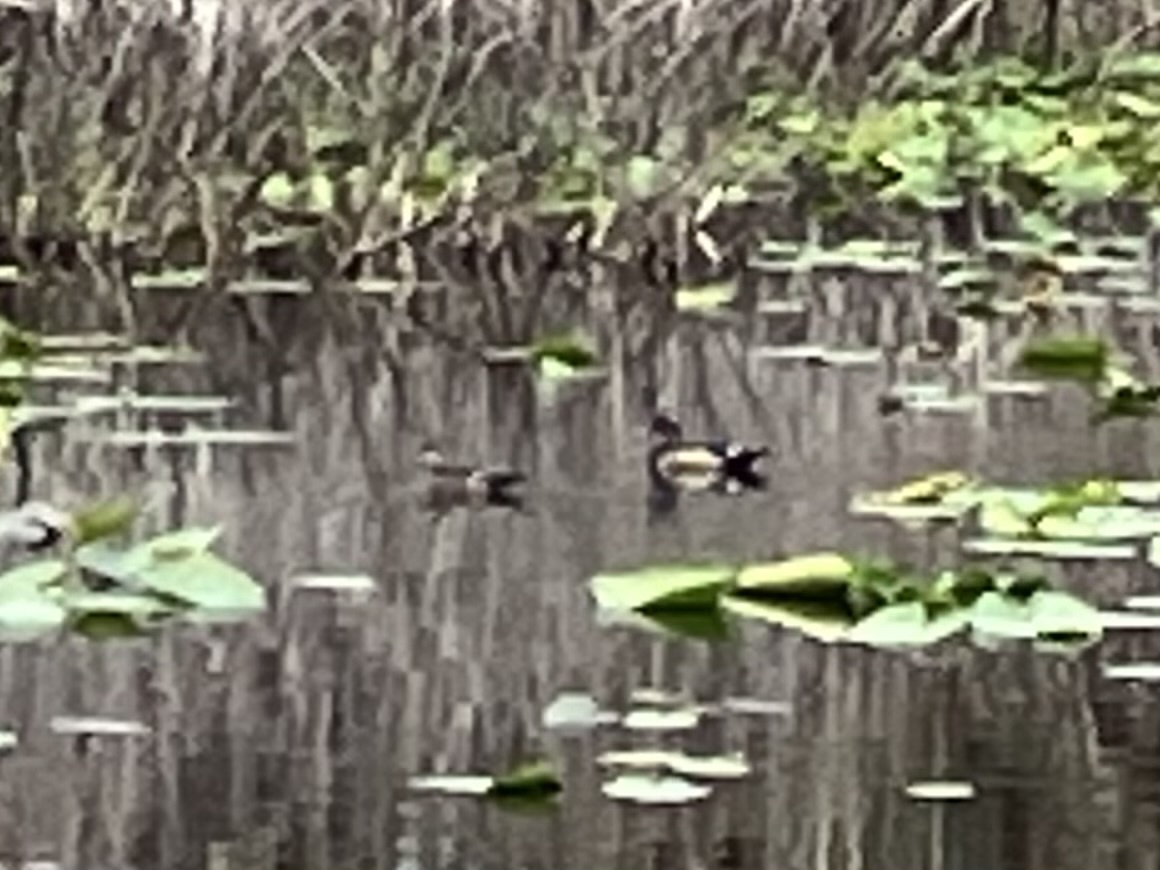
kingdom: Animalia
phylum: Chordata
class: Aves
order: Anseriformes
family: Anatidae
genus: Aix
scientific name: Aix sponsa
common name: Wood duck
